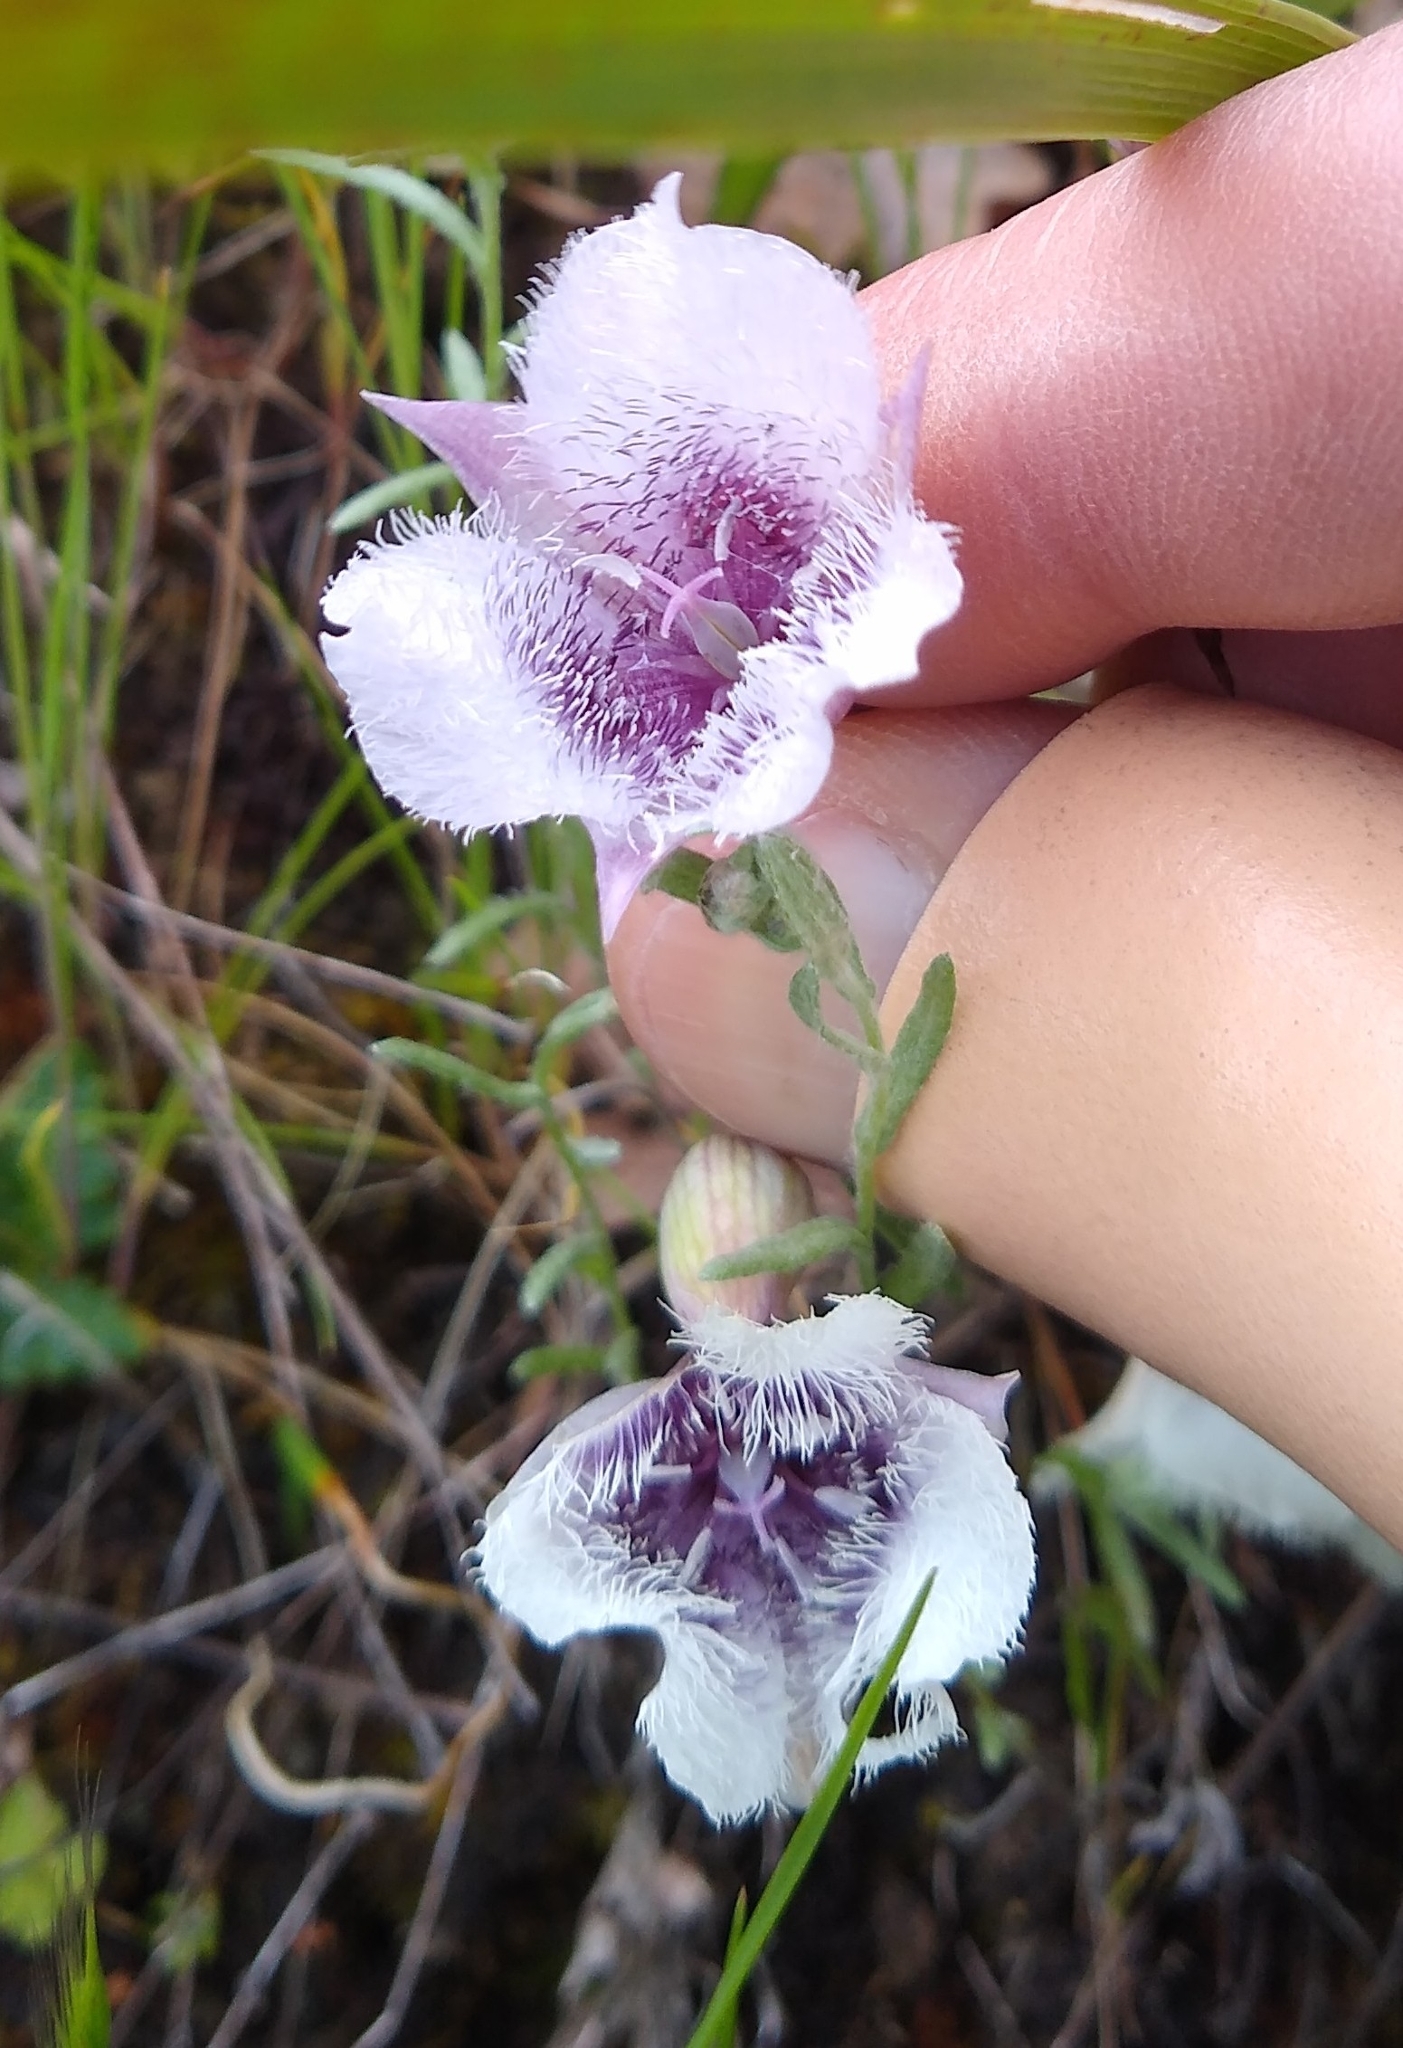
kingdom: Plantae
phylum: Tracheophyta
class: Liliopsida
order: Liliales
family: Liliaceae
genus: Calochortus
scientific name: Calochortus tolmiei
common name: Pussy-ears
